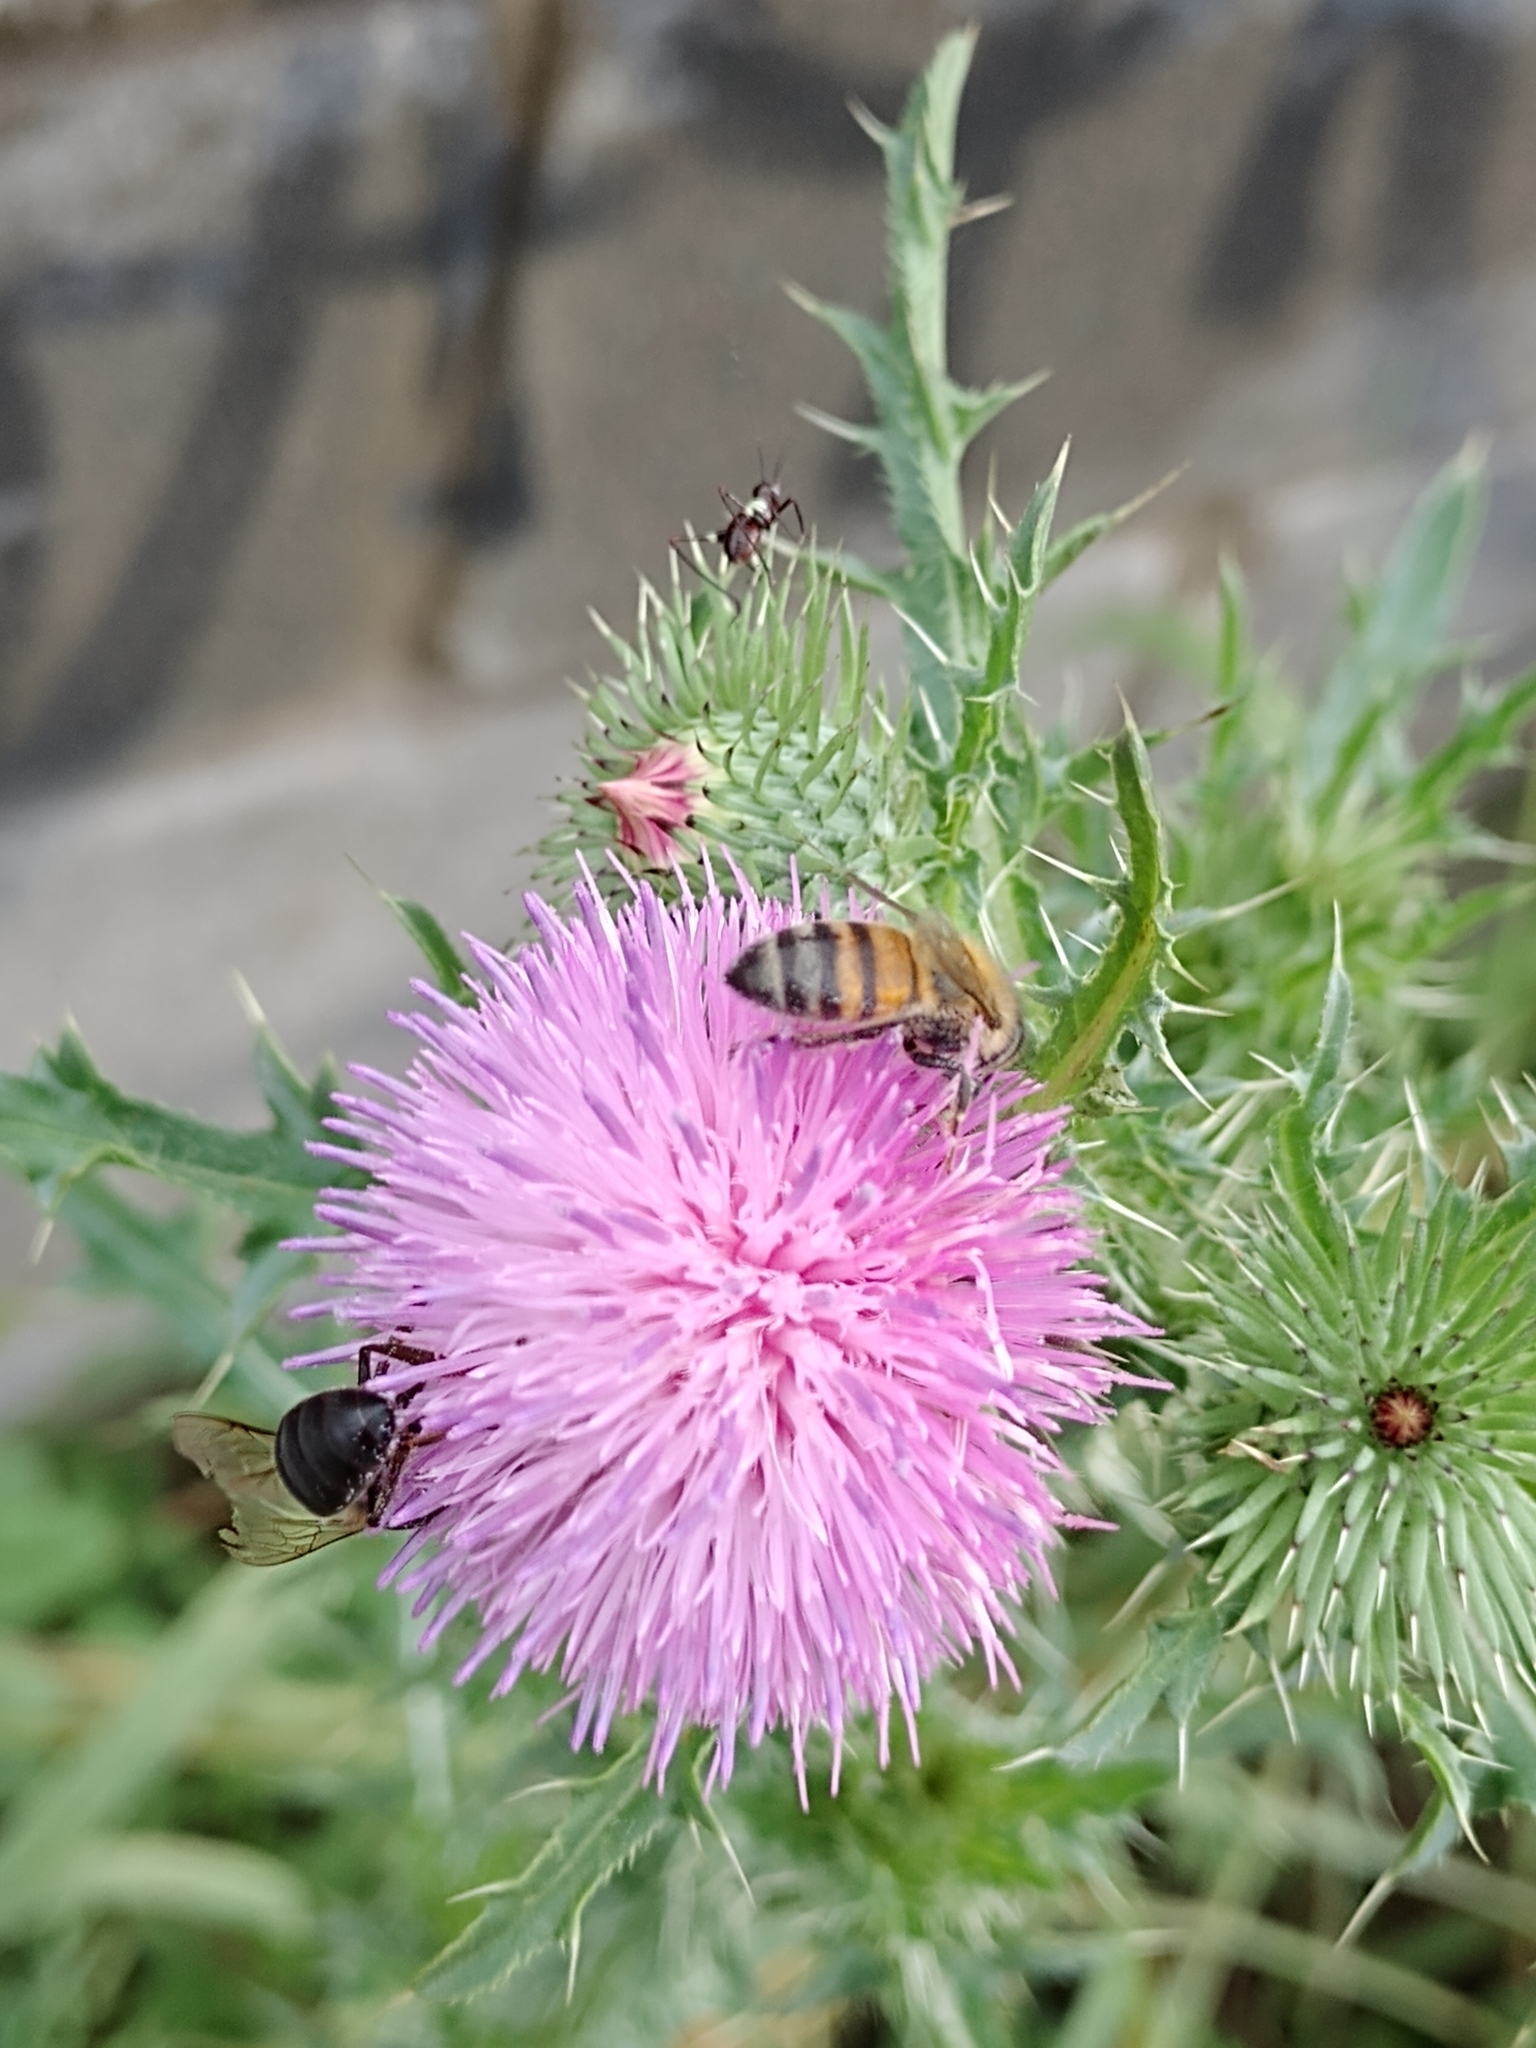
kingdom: Animalia
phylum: Arthropoda
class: Insecta
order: Hymenoptera
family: Apidae
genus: Apis
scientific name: Apis mellifera
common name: Honey bee
